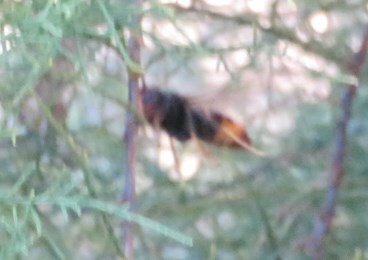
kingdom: Animalia
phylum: Arthropoda
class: Insecta
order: Hymenoptera
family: Vespidae
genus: Vespa
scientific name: Vespa velutina
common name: Asian hornet
